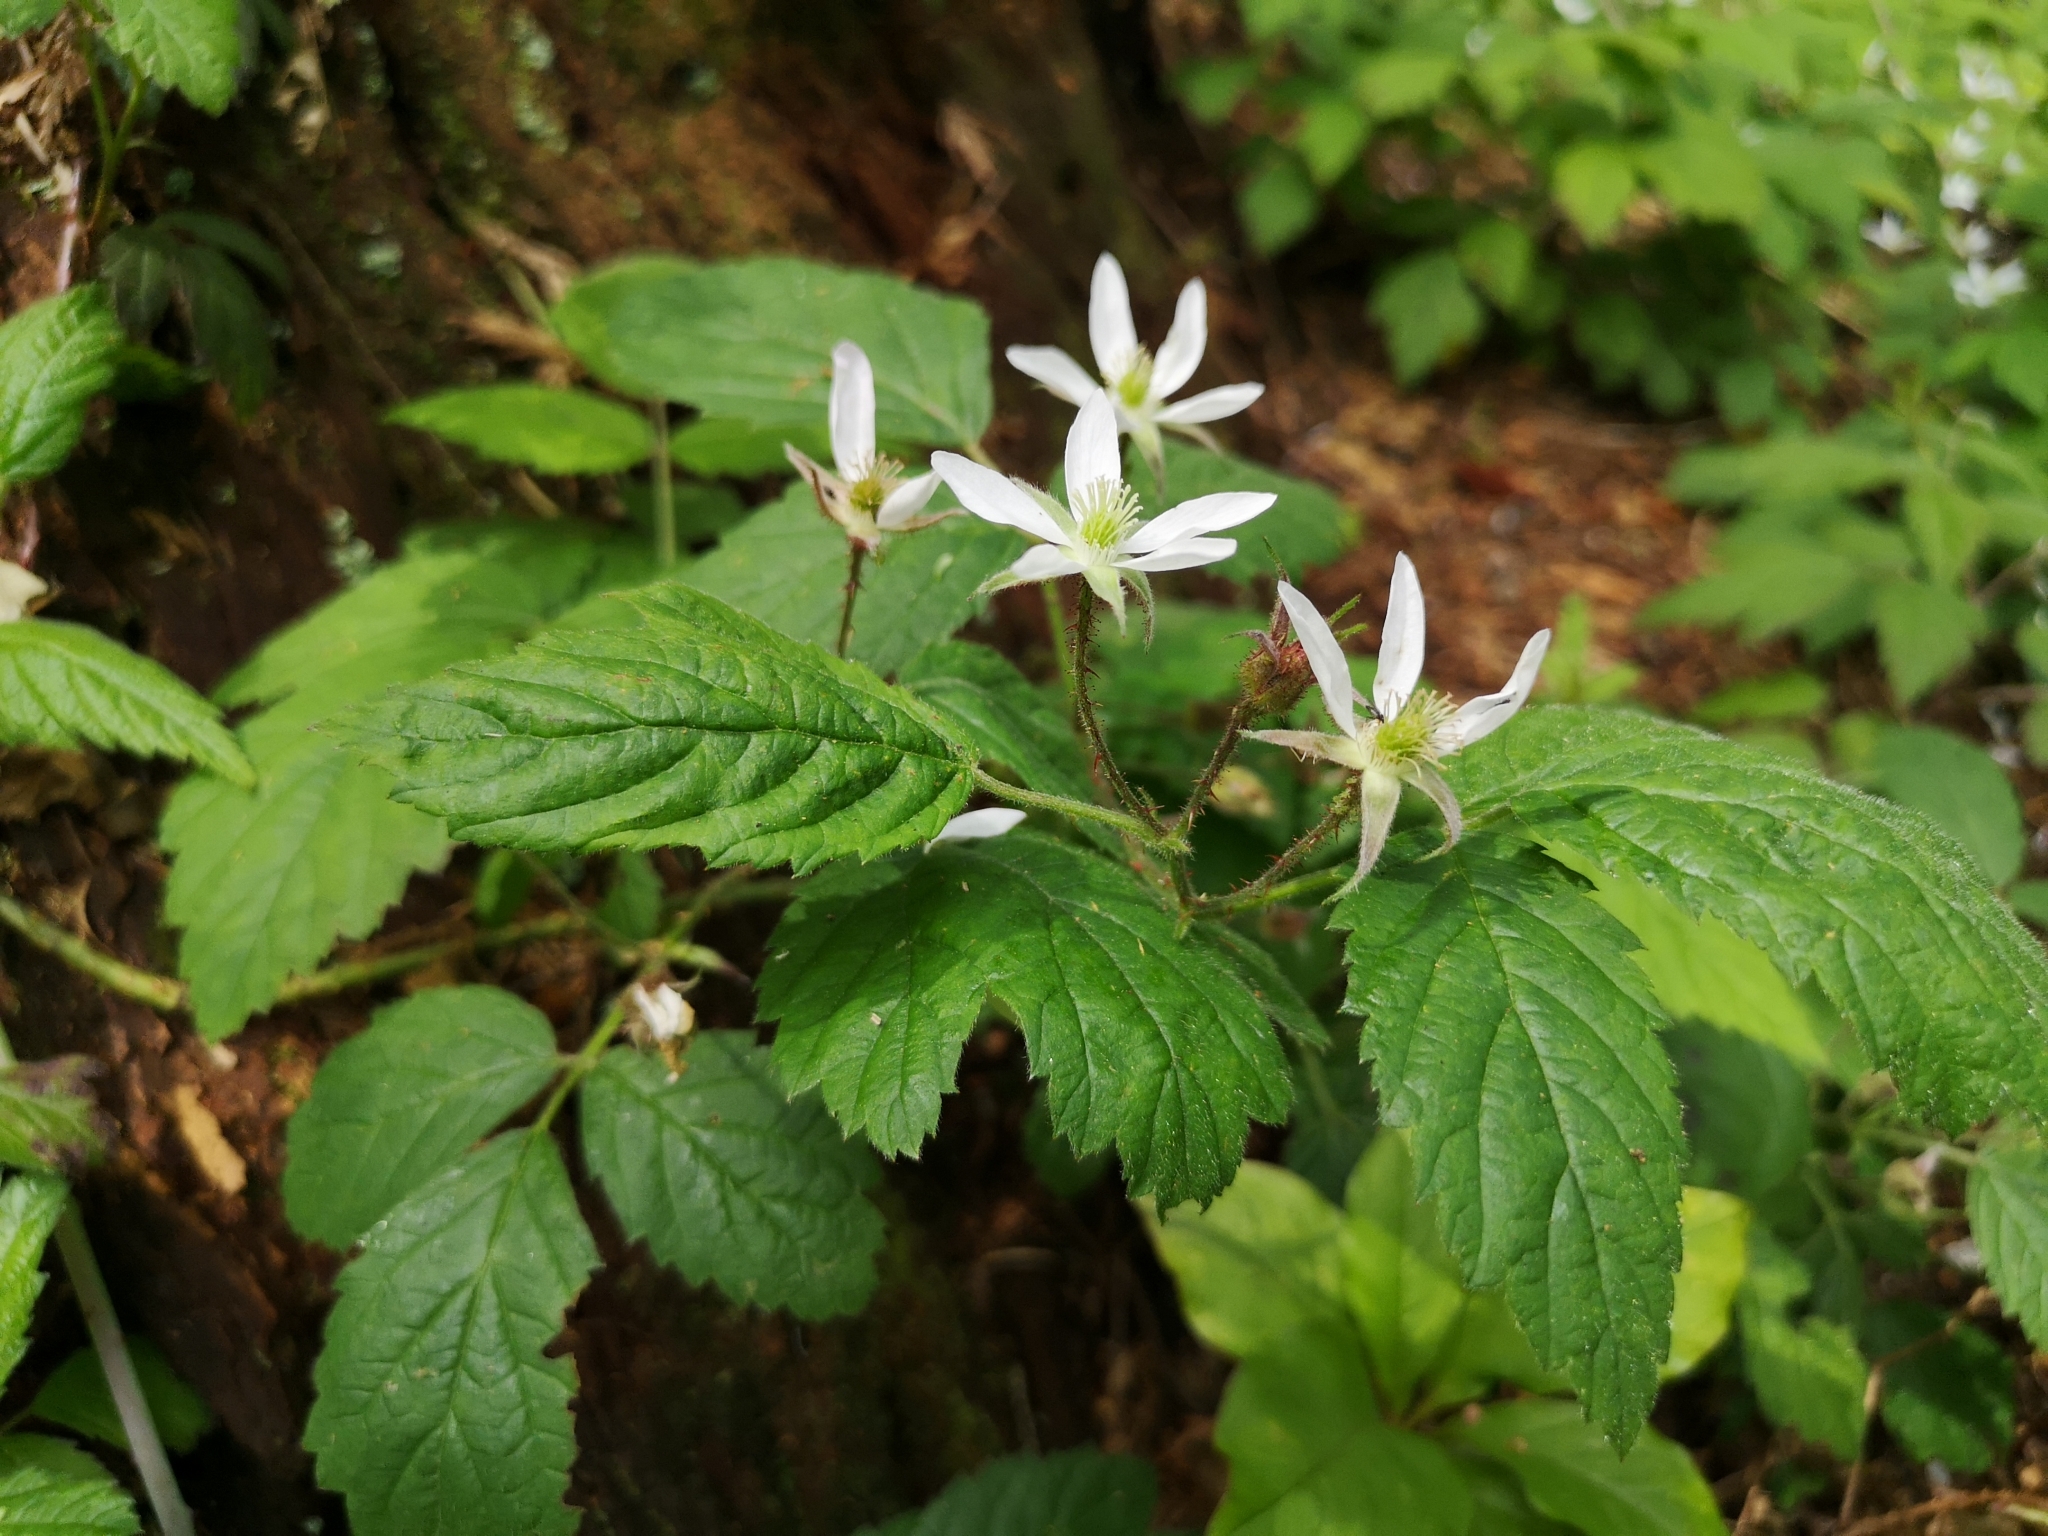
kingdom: Plantae
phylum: Tracheophyta
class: Magnoliopsida
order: Rosales
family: Rosaceae
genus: Rubus
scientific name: Rubus ursinus
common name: Pacific blackberry
